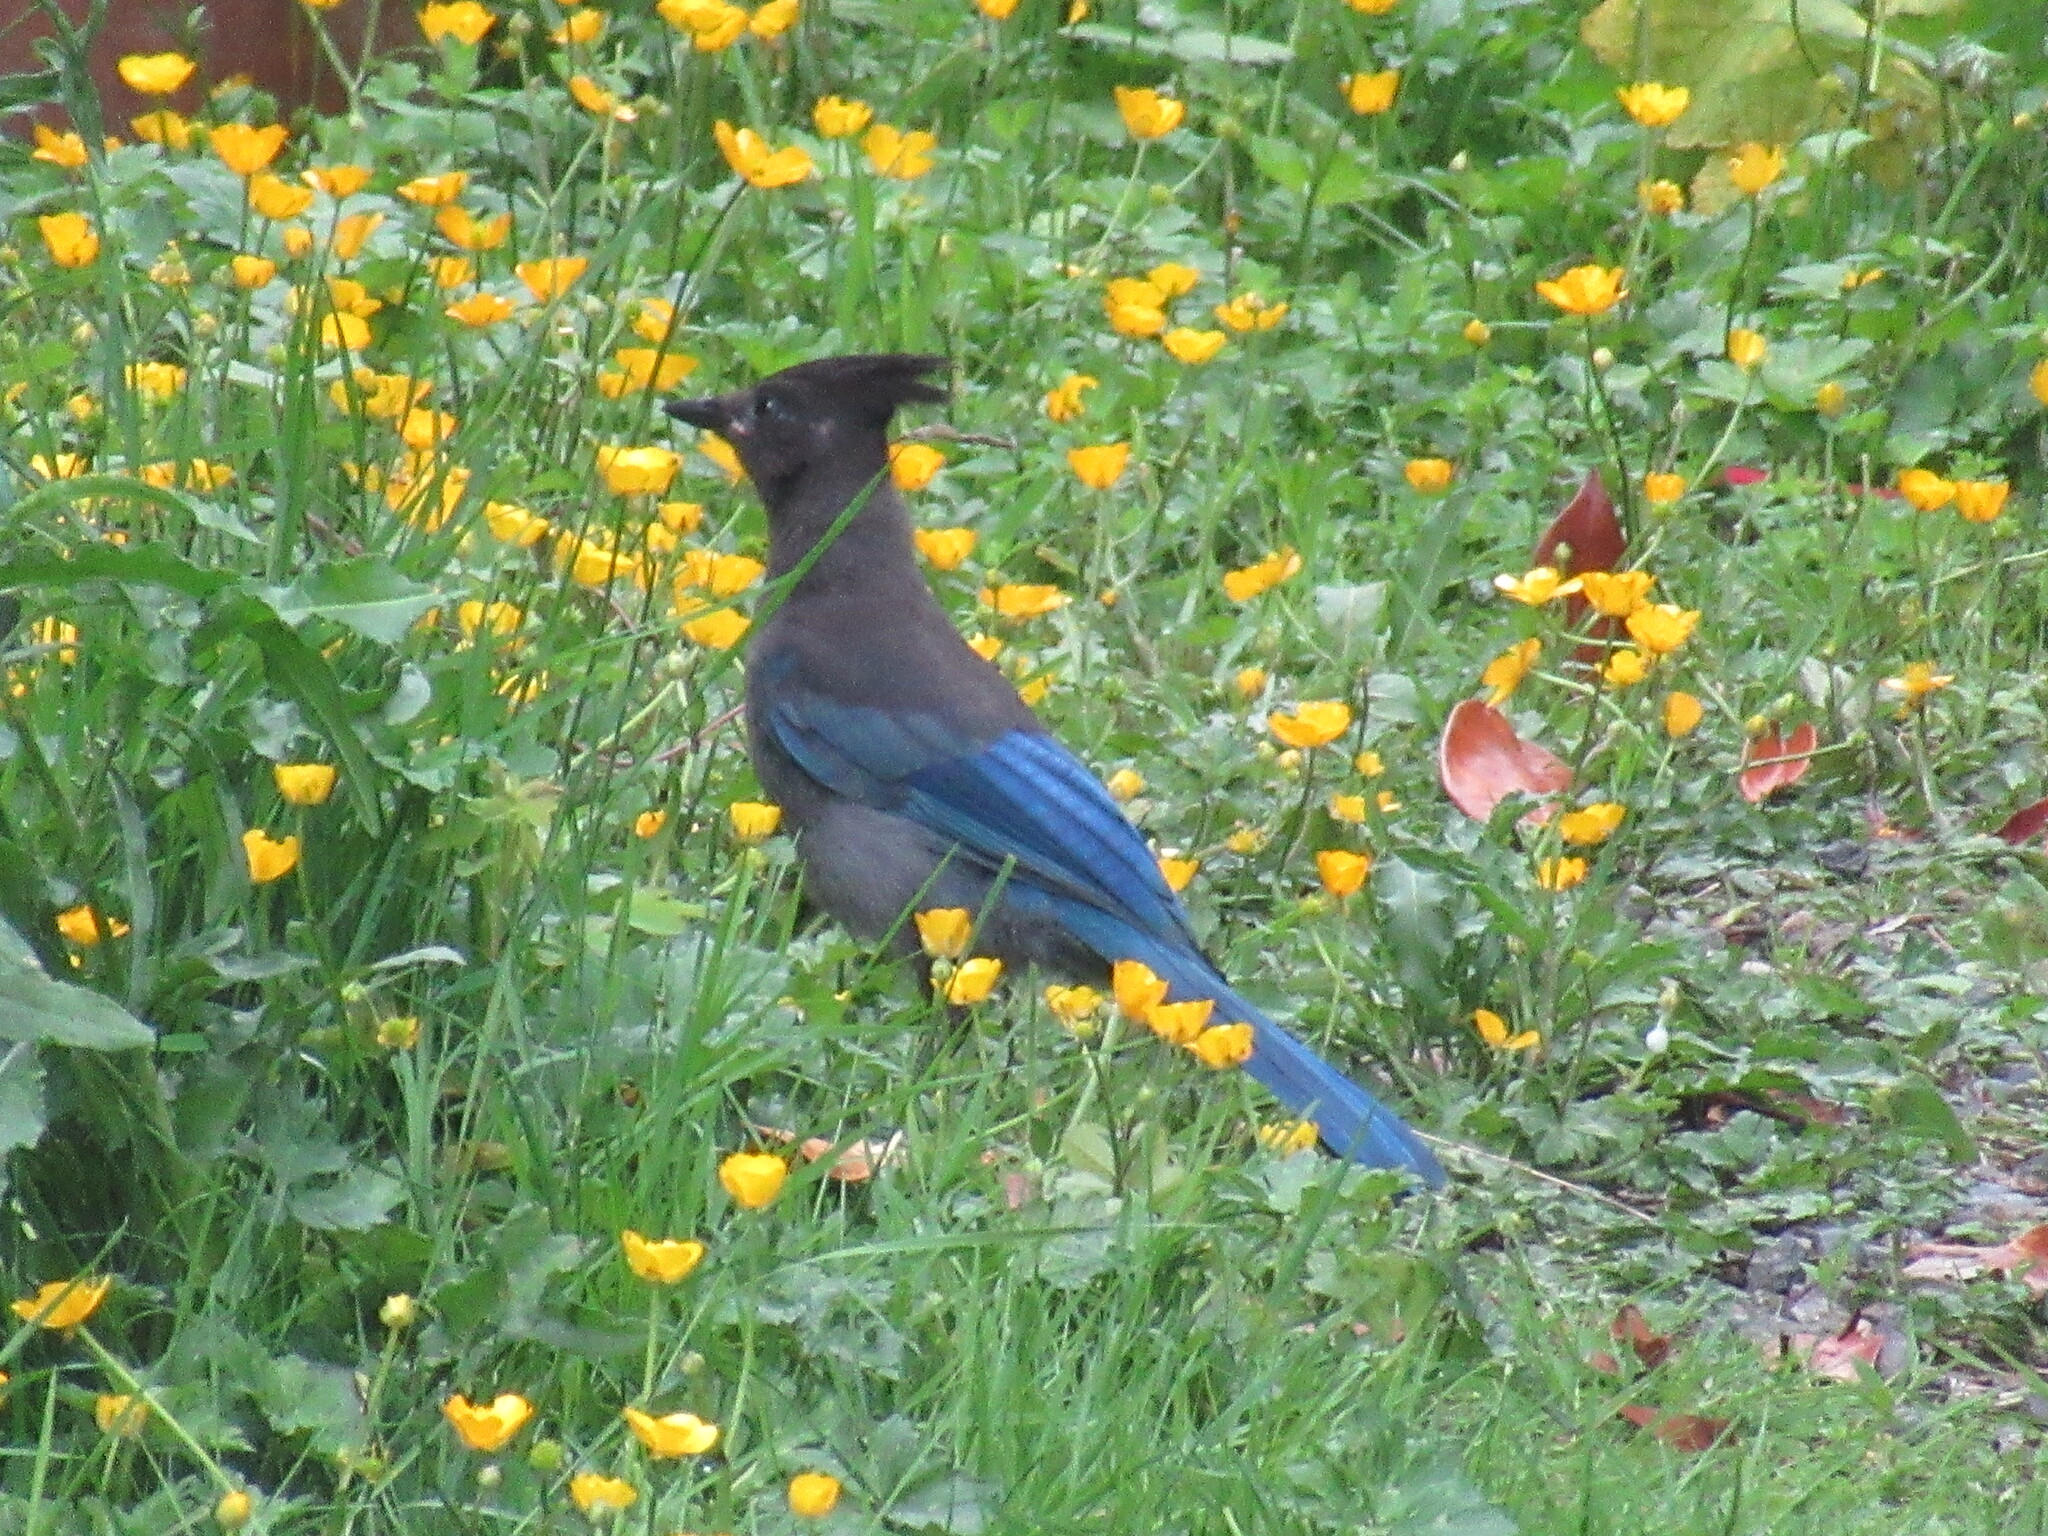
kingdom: Animalia
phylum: Chordata
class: Aves
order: Passeriformes
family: Corvidae
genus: Cyanocitta
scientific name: Cyanocitta stelleri
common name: Steller's jay
